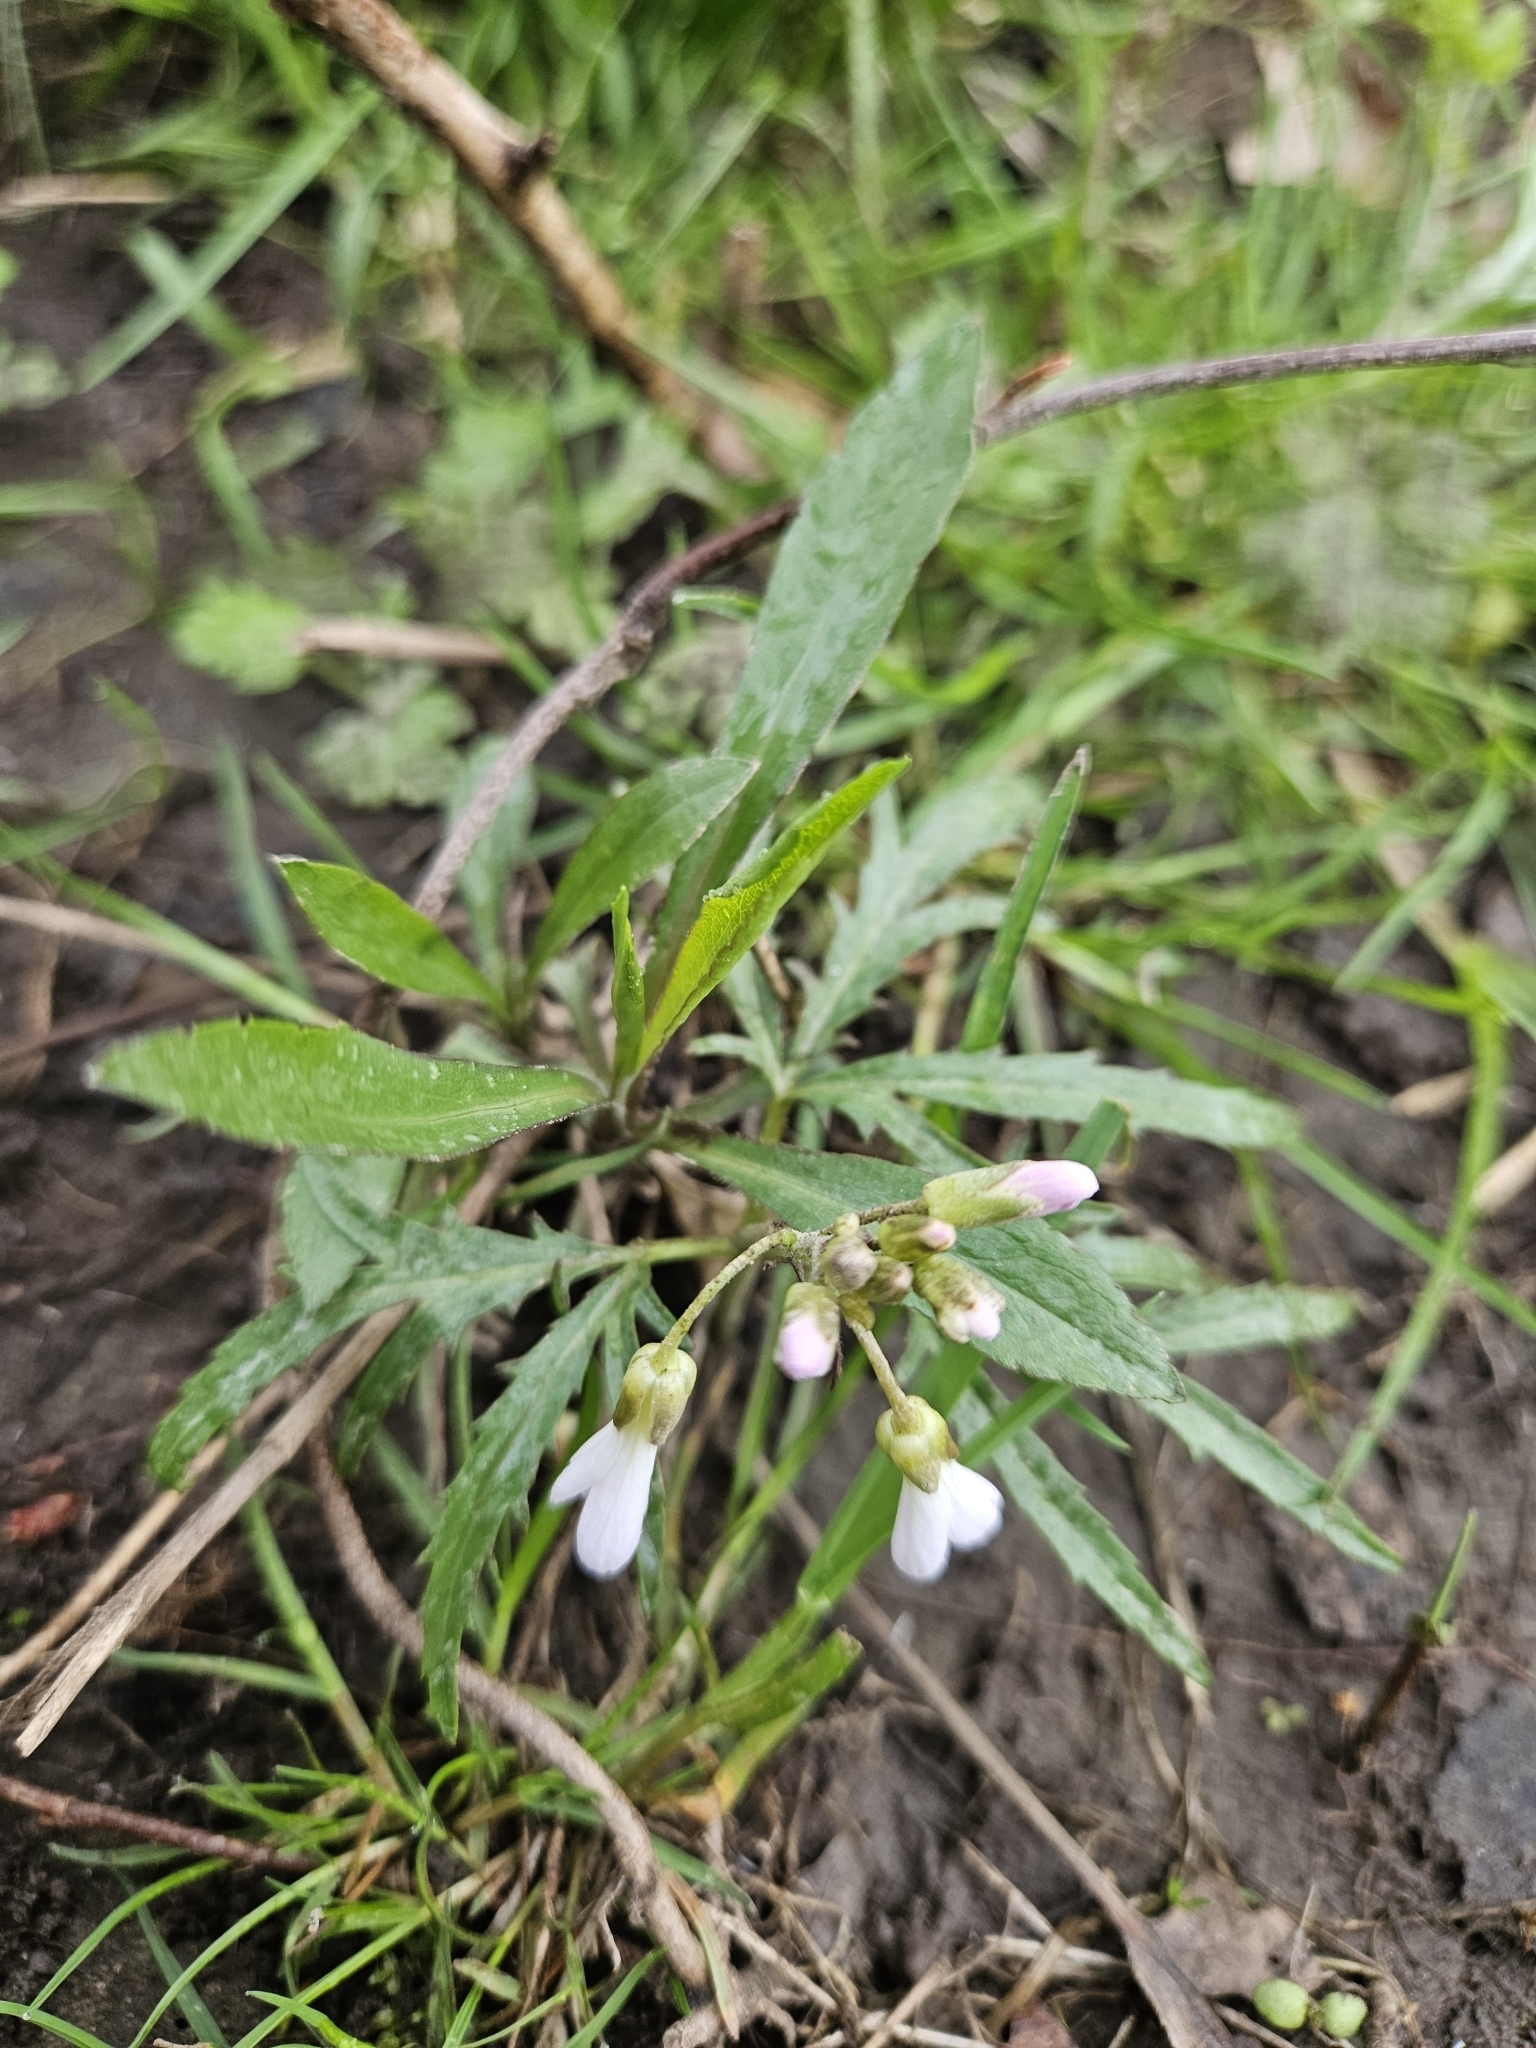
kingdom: Plantae
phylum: Tracheophyta
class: Magnoliopsida
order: Brassicales
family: Brassicaceae
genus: Cardamine
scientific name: Cardamine concatenata
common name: Cut-leaf toothcup
